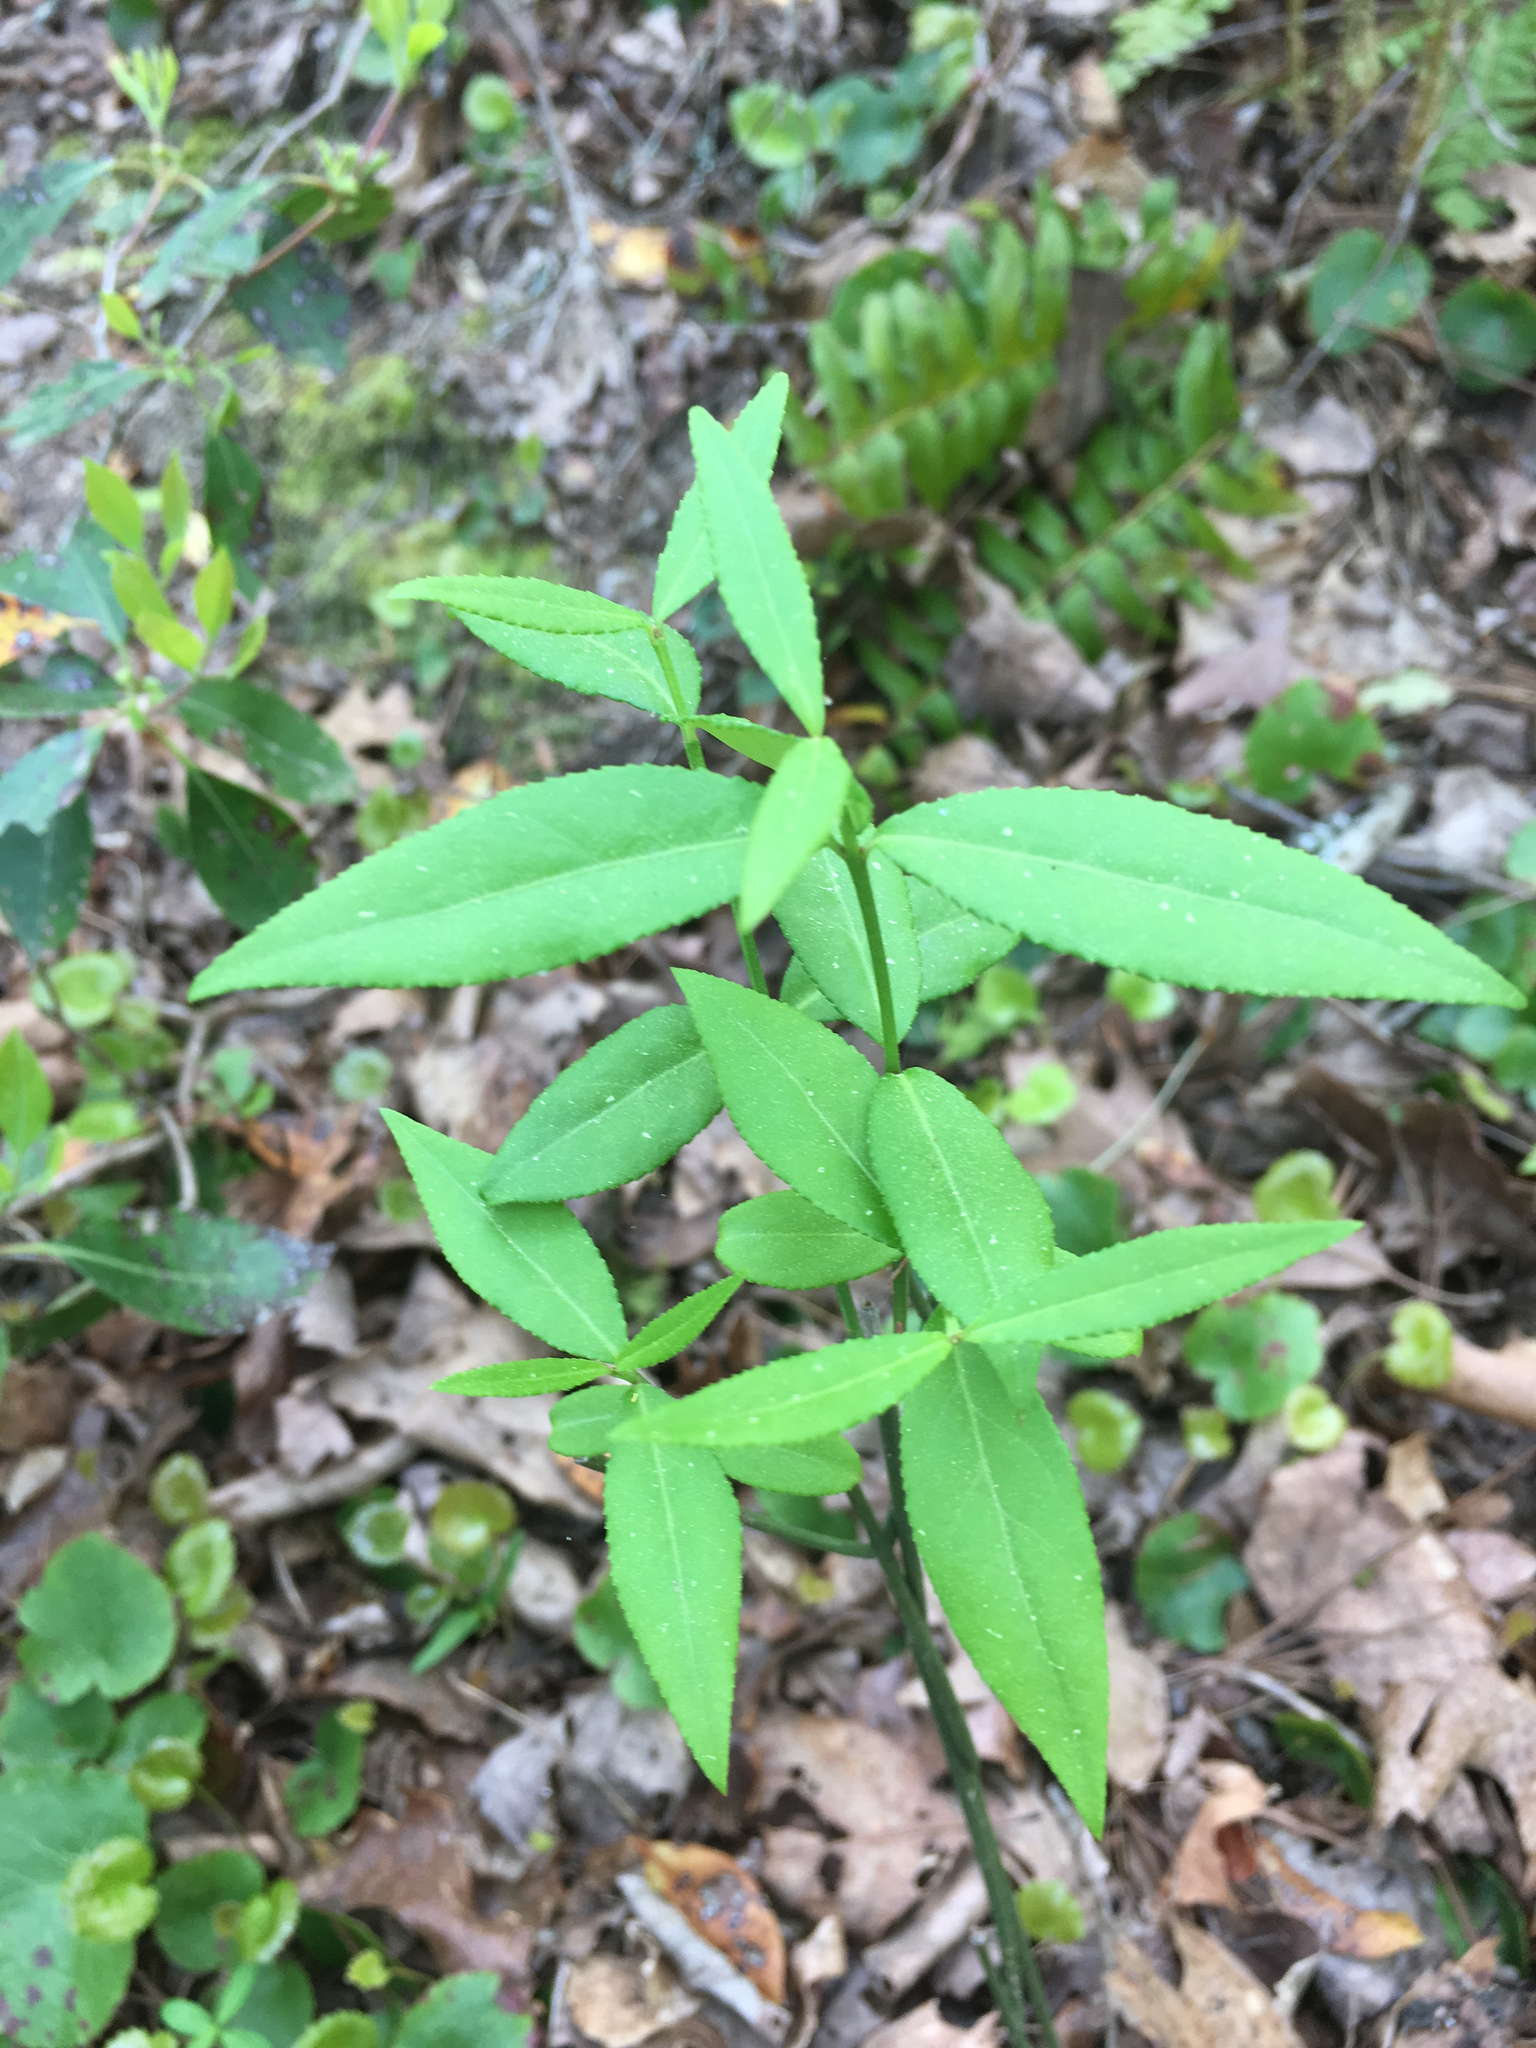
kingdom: Plantae
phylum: Tracheophyta
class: Magnoliopsida
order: Celastrales
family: Celastraceae
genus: Euonymus
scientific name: Euonymus americanus
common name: Bursting-heart
